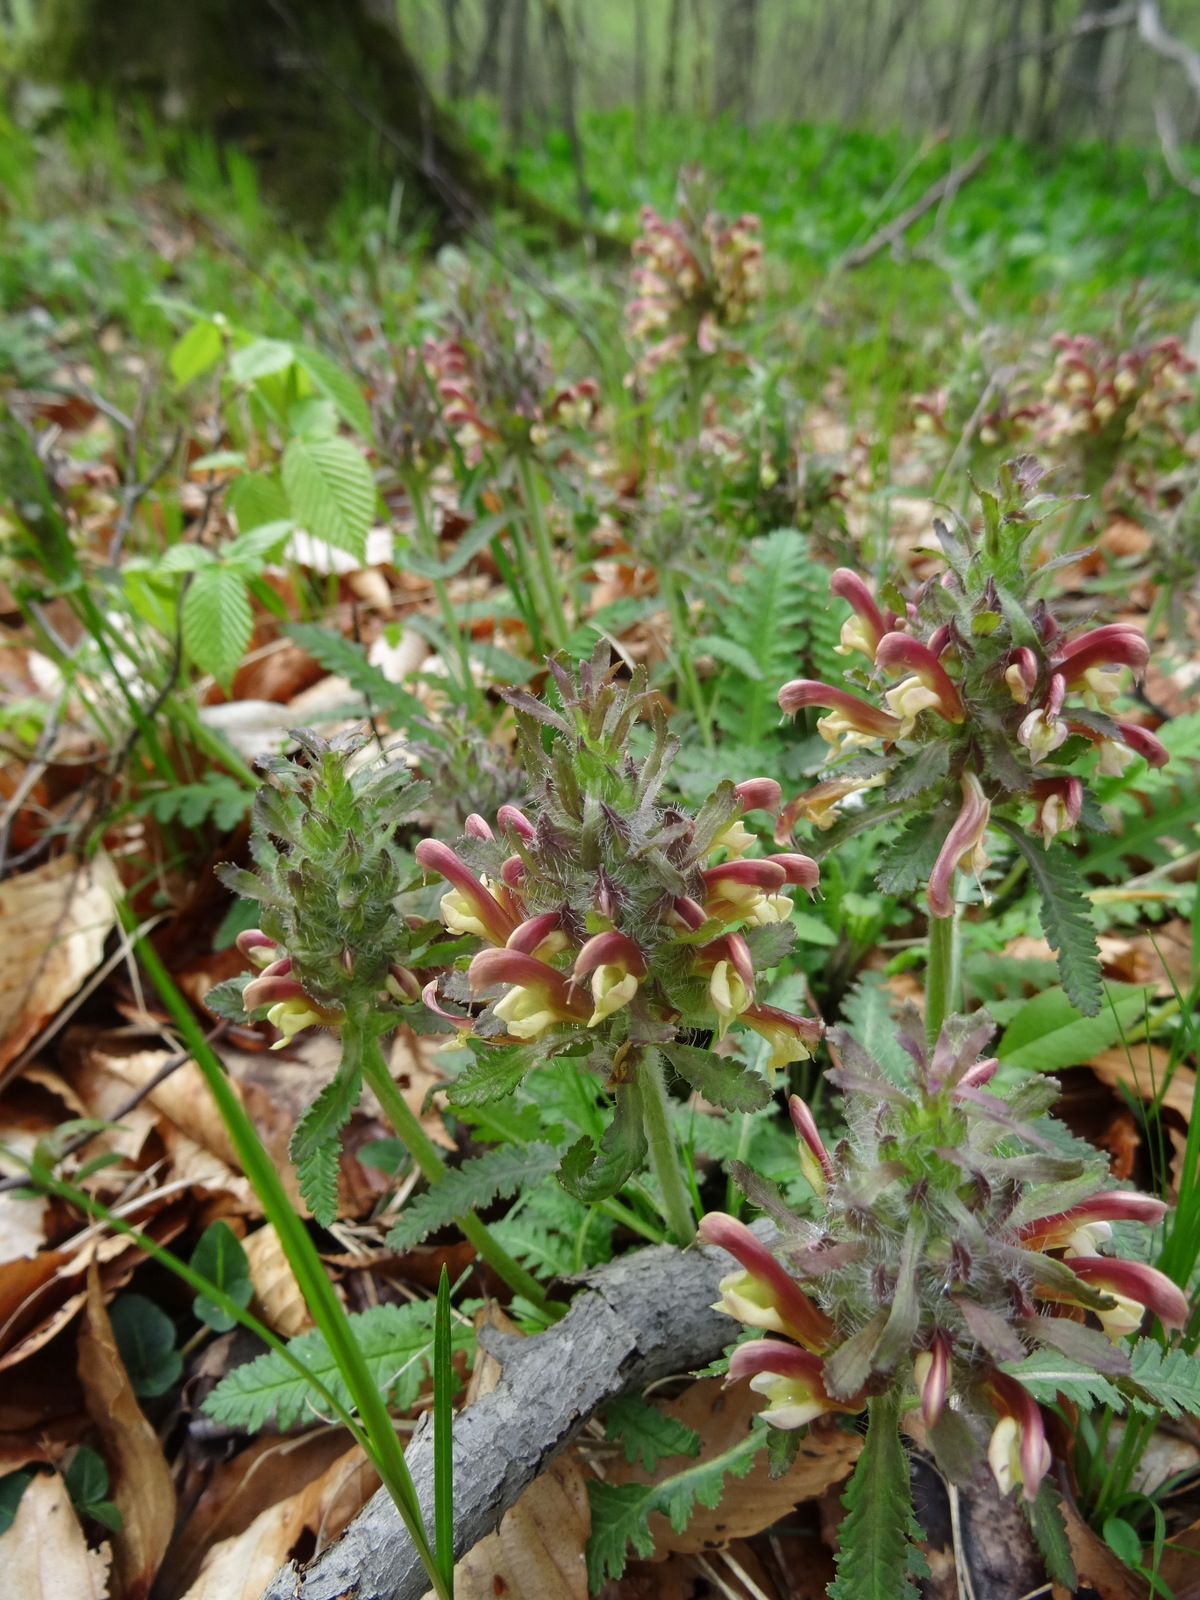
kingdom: Plantae
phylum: Tracheophyta
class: Magnoliopsida
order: Lamiales
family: Orobanchaceae
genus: Pedicularis
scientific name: Pedicularis canadensis
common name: Early lousewort
